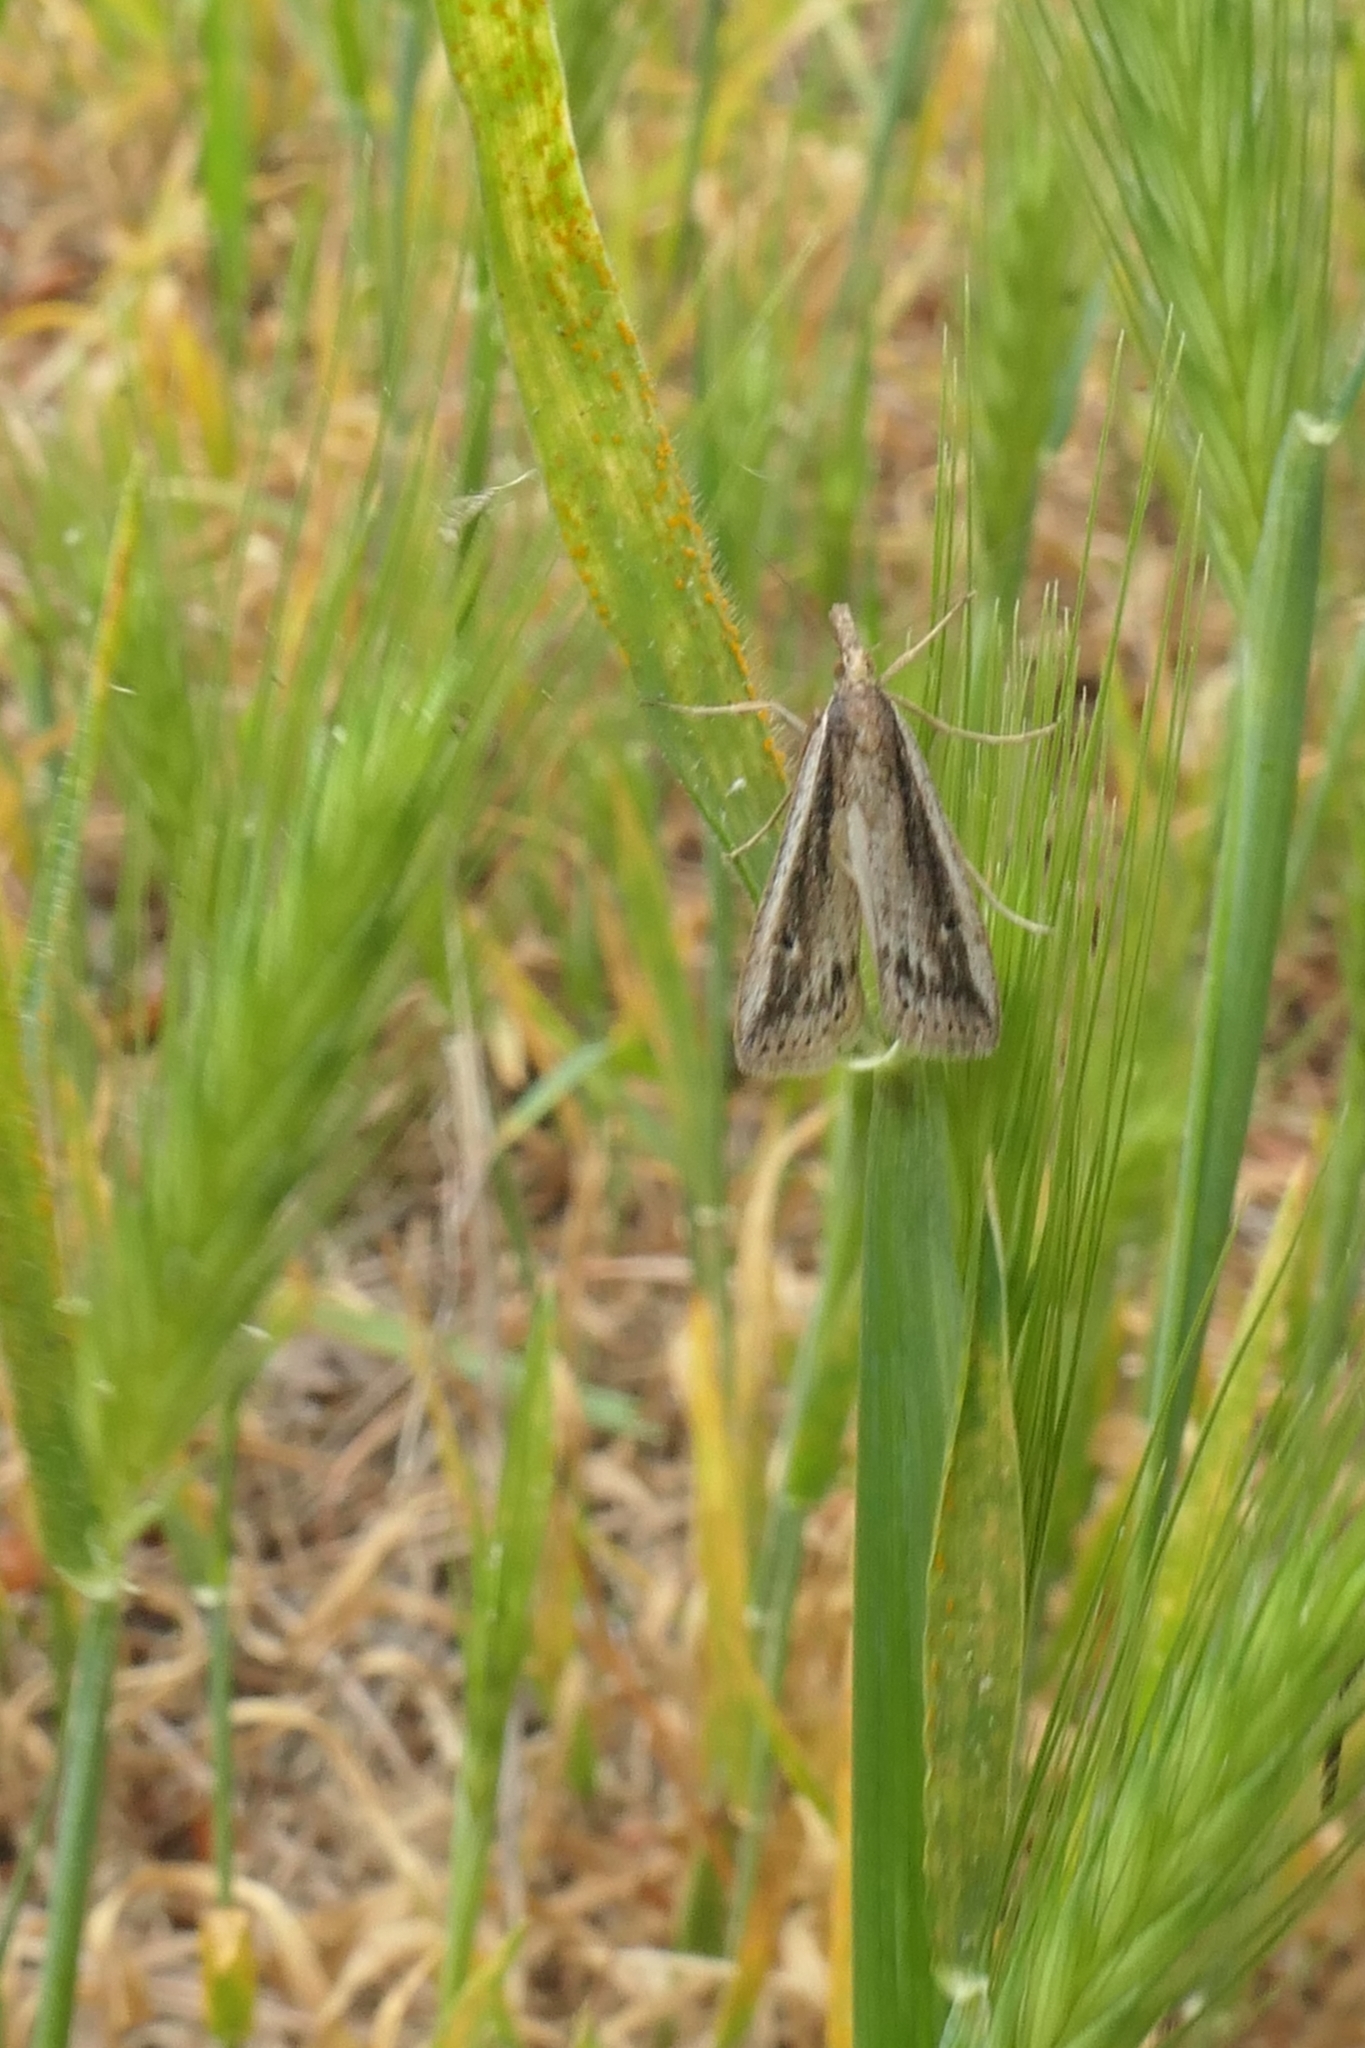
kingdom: Animalia
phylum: Arthropoda
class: Insecta
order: Lepidoptera
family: Crambidae
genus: Eudonia
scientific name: Eudonia sabulosella
